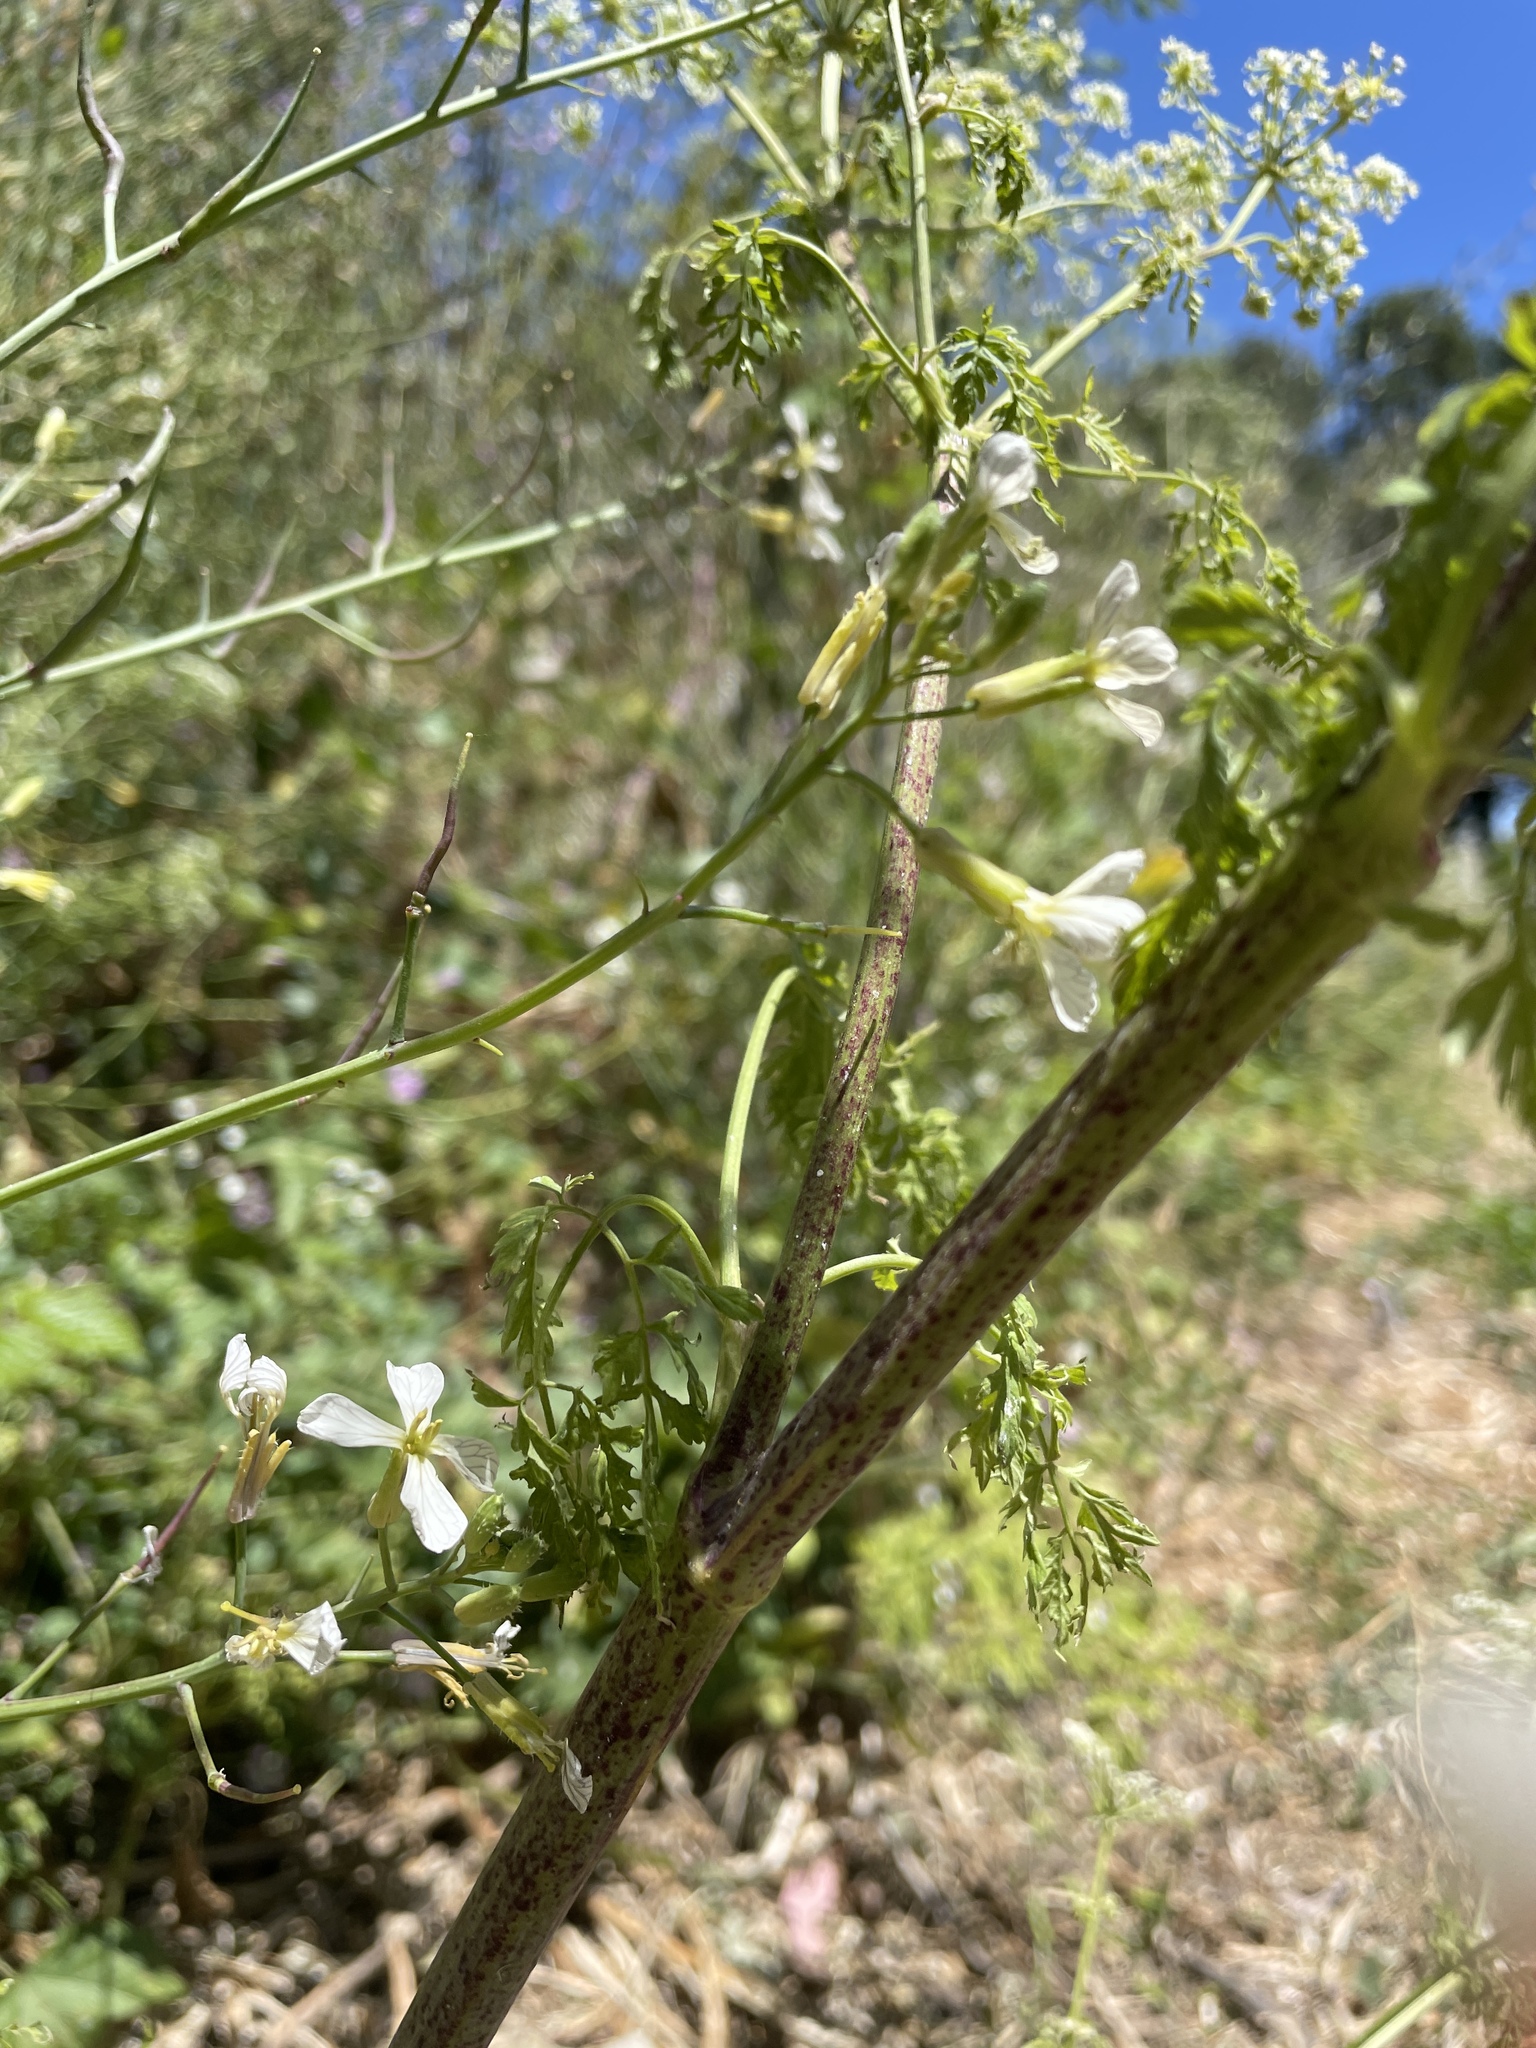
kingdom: Plantae
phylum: Tracheophyta
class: Magnoliopsida
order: Apiales
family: Apiaceae
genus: Conium
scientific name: Conium maculatum
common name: Hemlock
